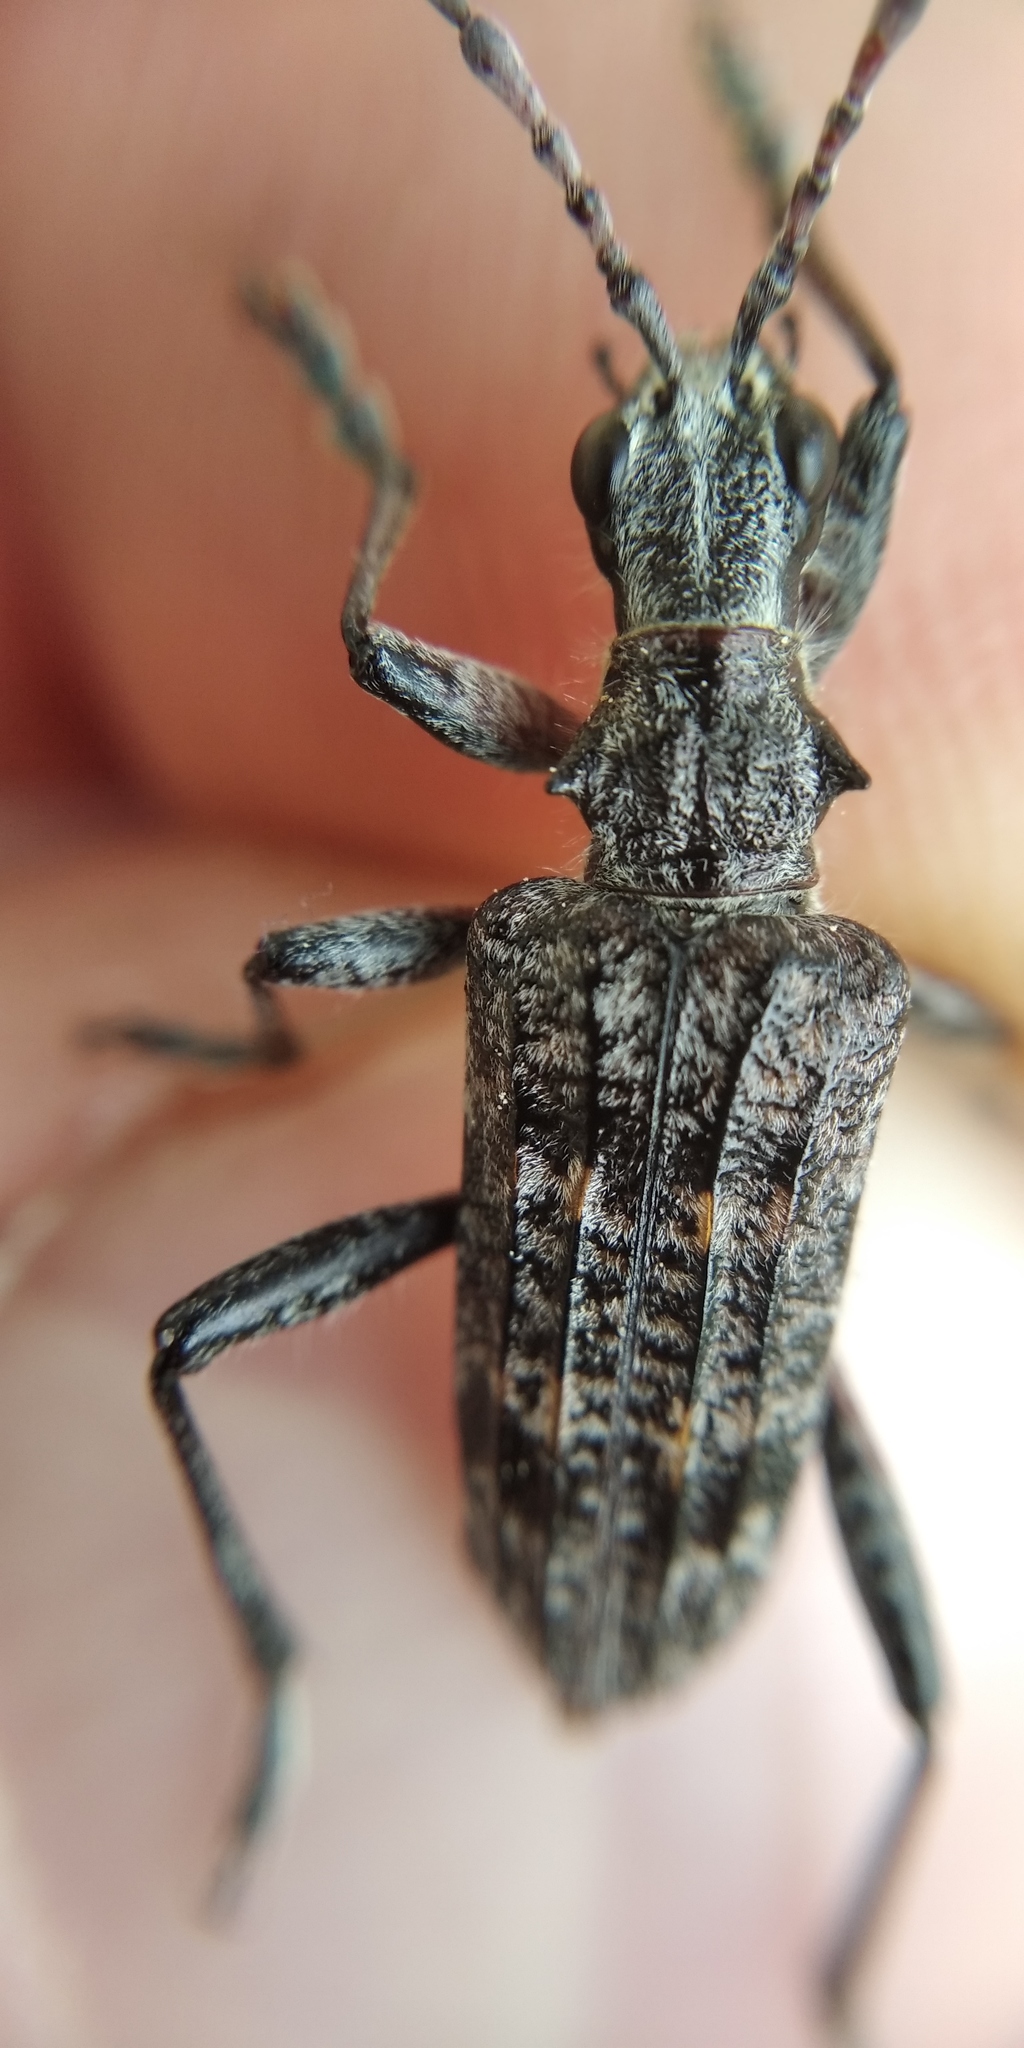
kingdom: Animalia
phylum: Arthropoda
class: Insecta
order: Coleoptera
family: Cerambycidae
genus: Rhagium
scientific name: Rhagium inquisitor
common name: Ribbed pine borer
